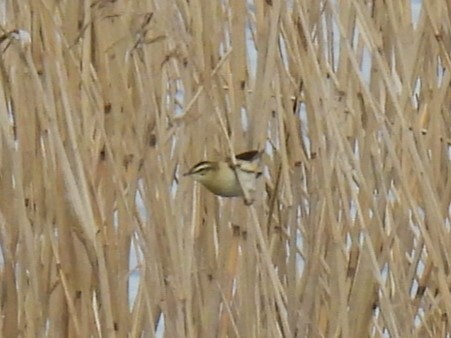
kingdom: Animalia
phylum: Chordata
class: Aves
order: Passeriformes
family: Acrocephalidae
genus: Acrocephalus
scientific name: Acrocephalus schoenobaenus
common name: Sedge warbler
